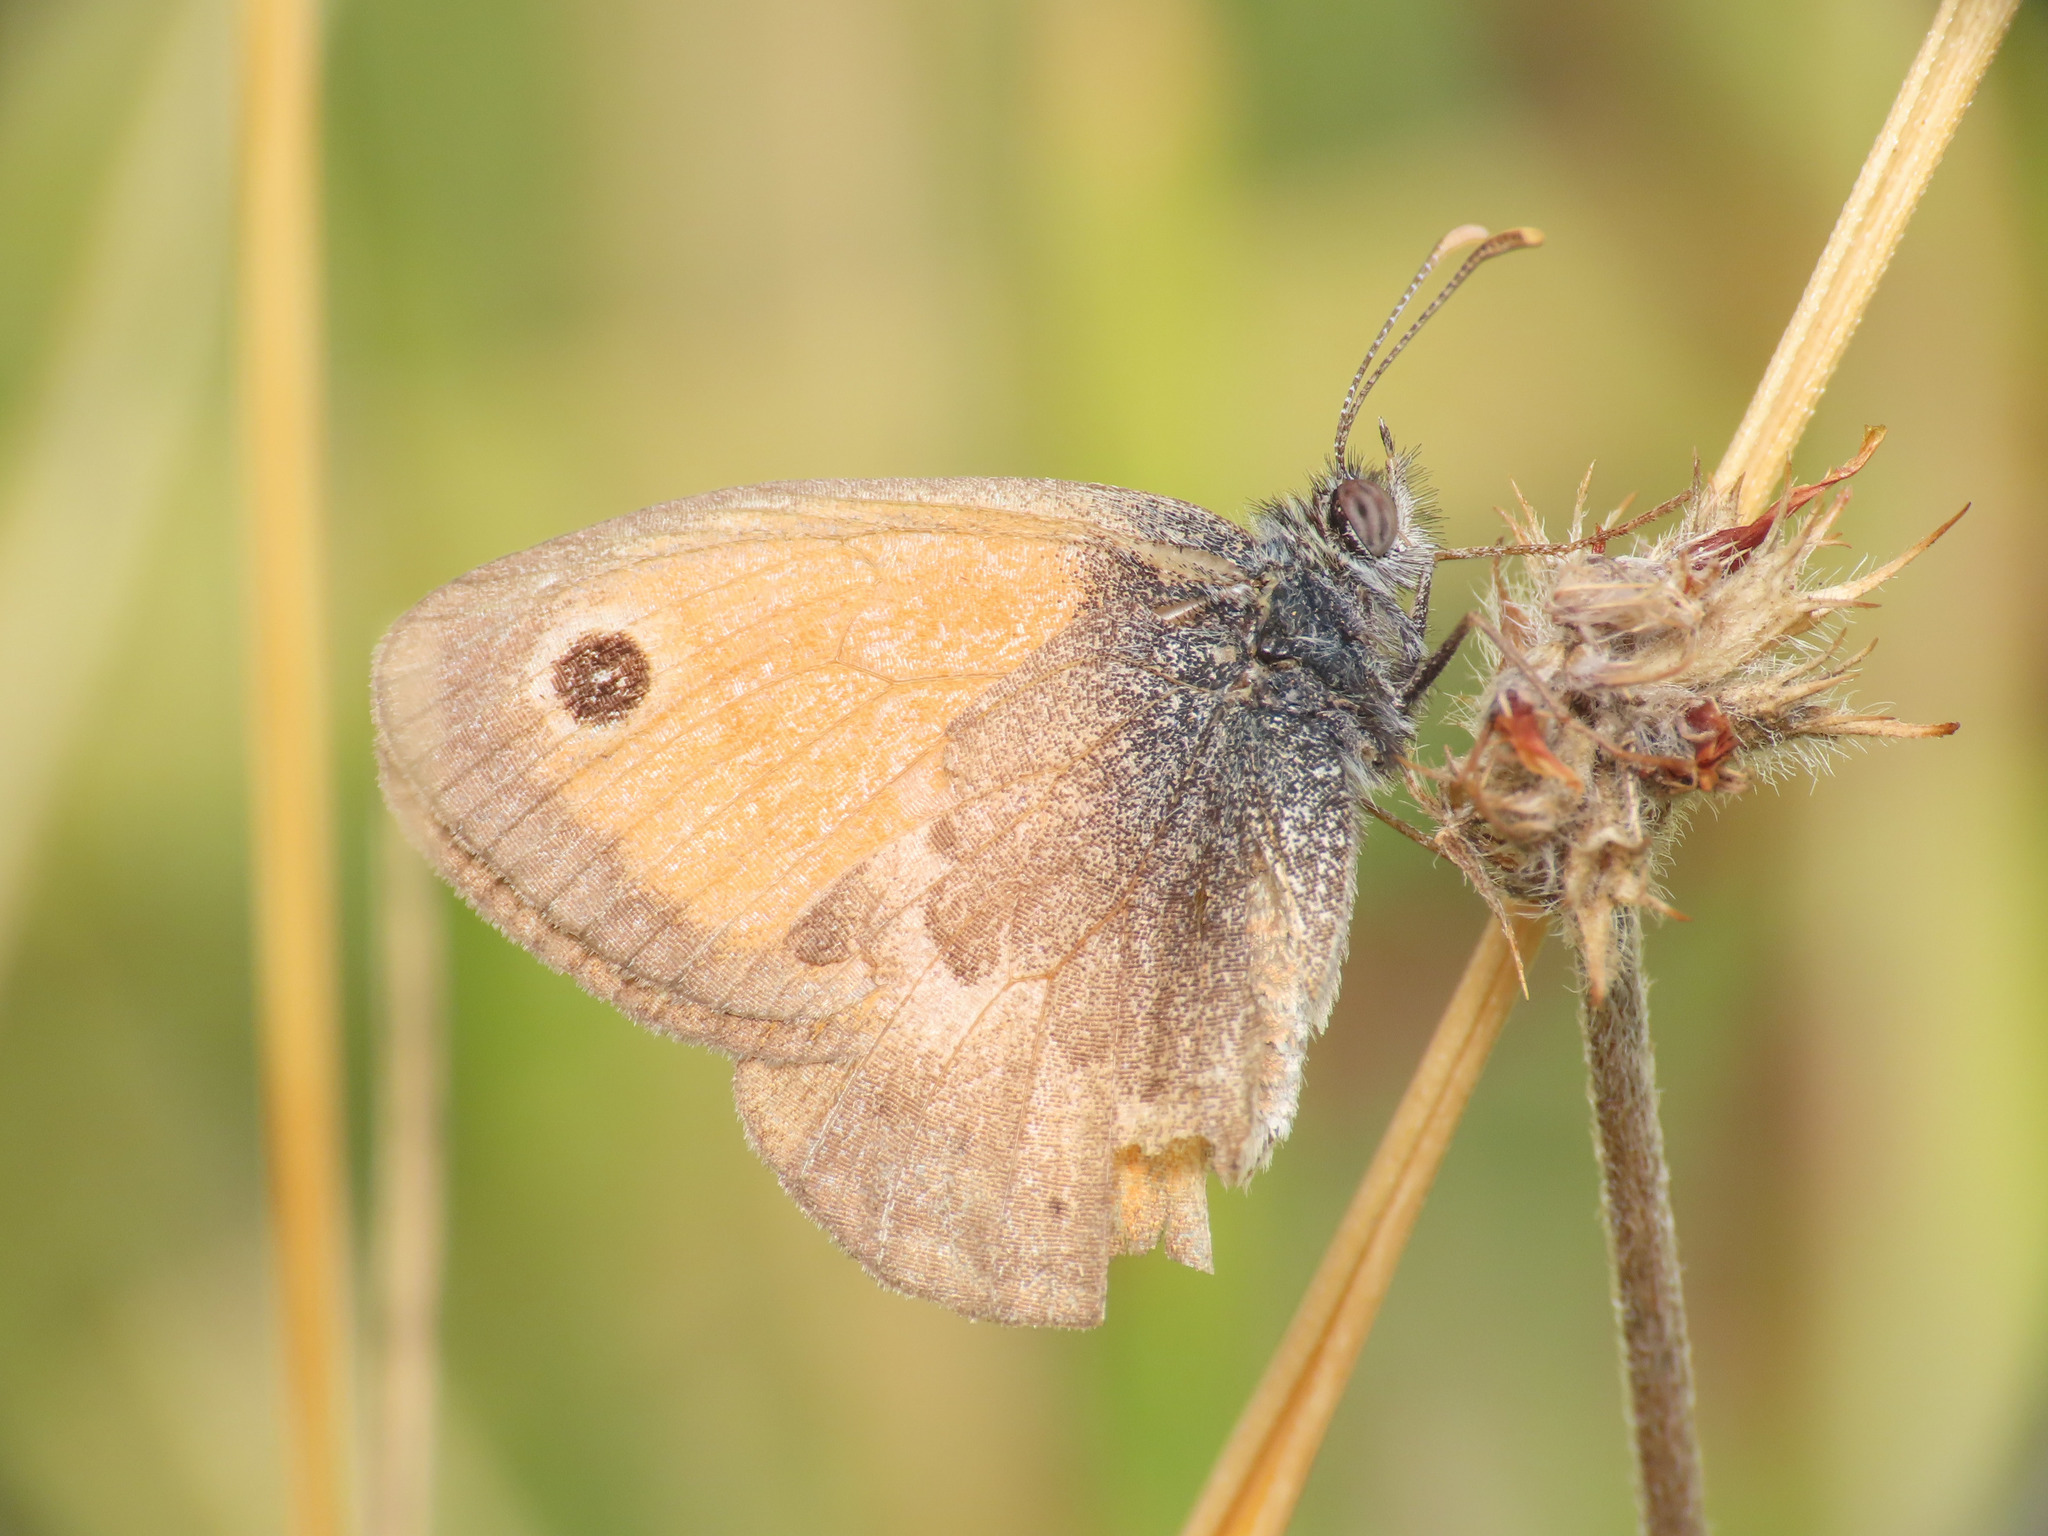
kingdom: Animalia
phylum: Arthropoda
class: Insecta
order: Lepidoptera
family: Nymphalidae
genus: Coenonympha
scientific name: Coenonympha pamphilus
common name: Small heath
